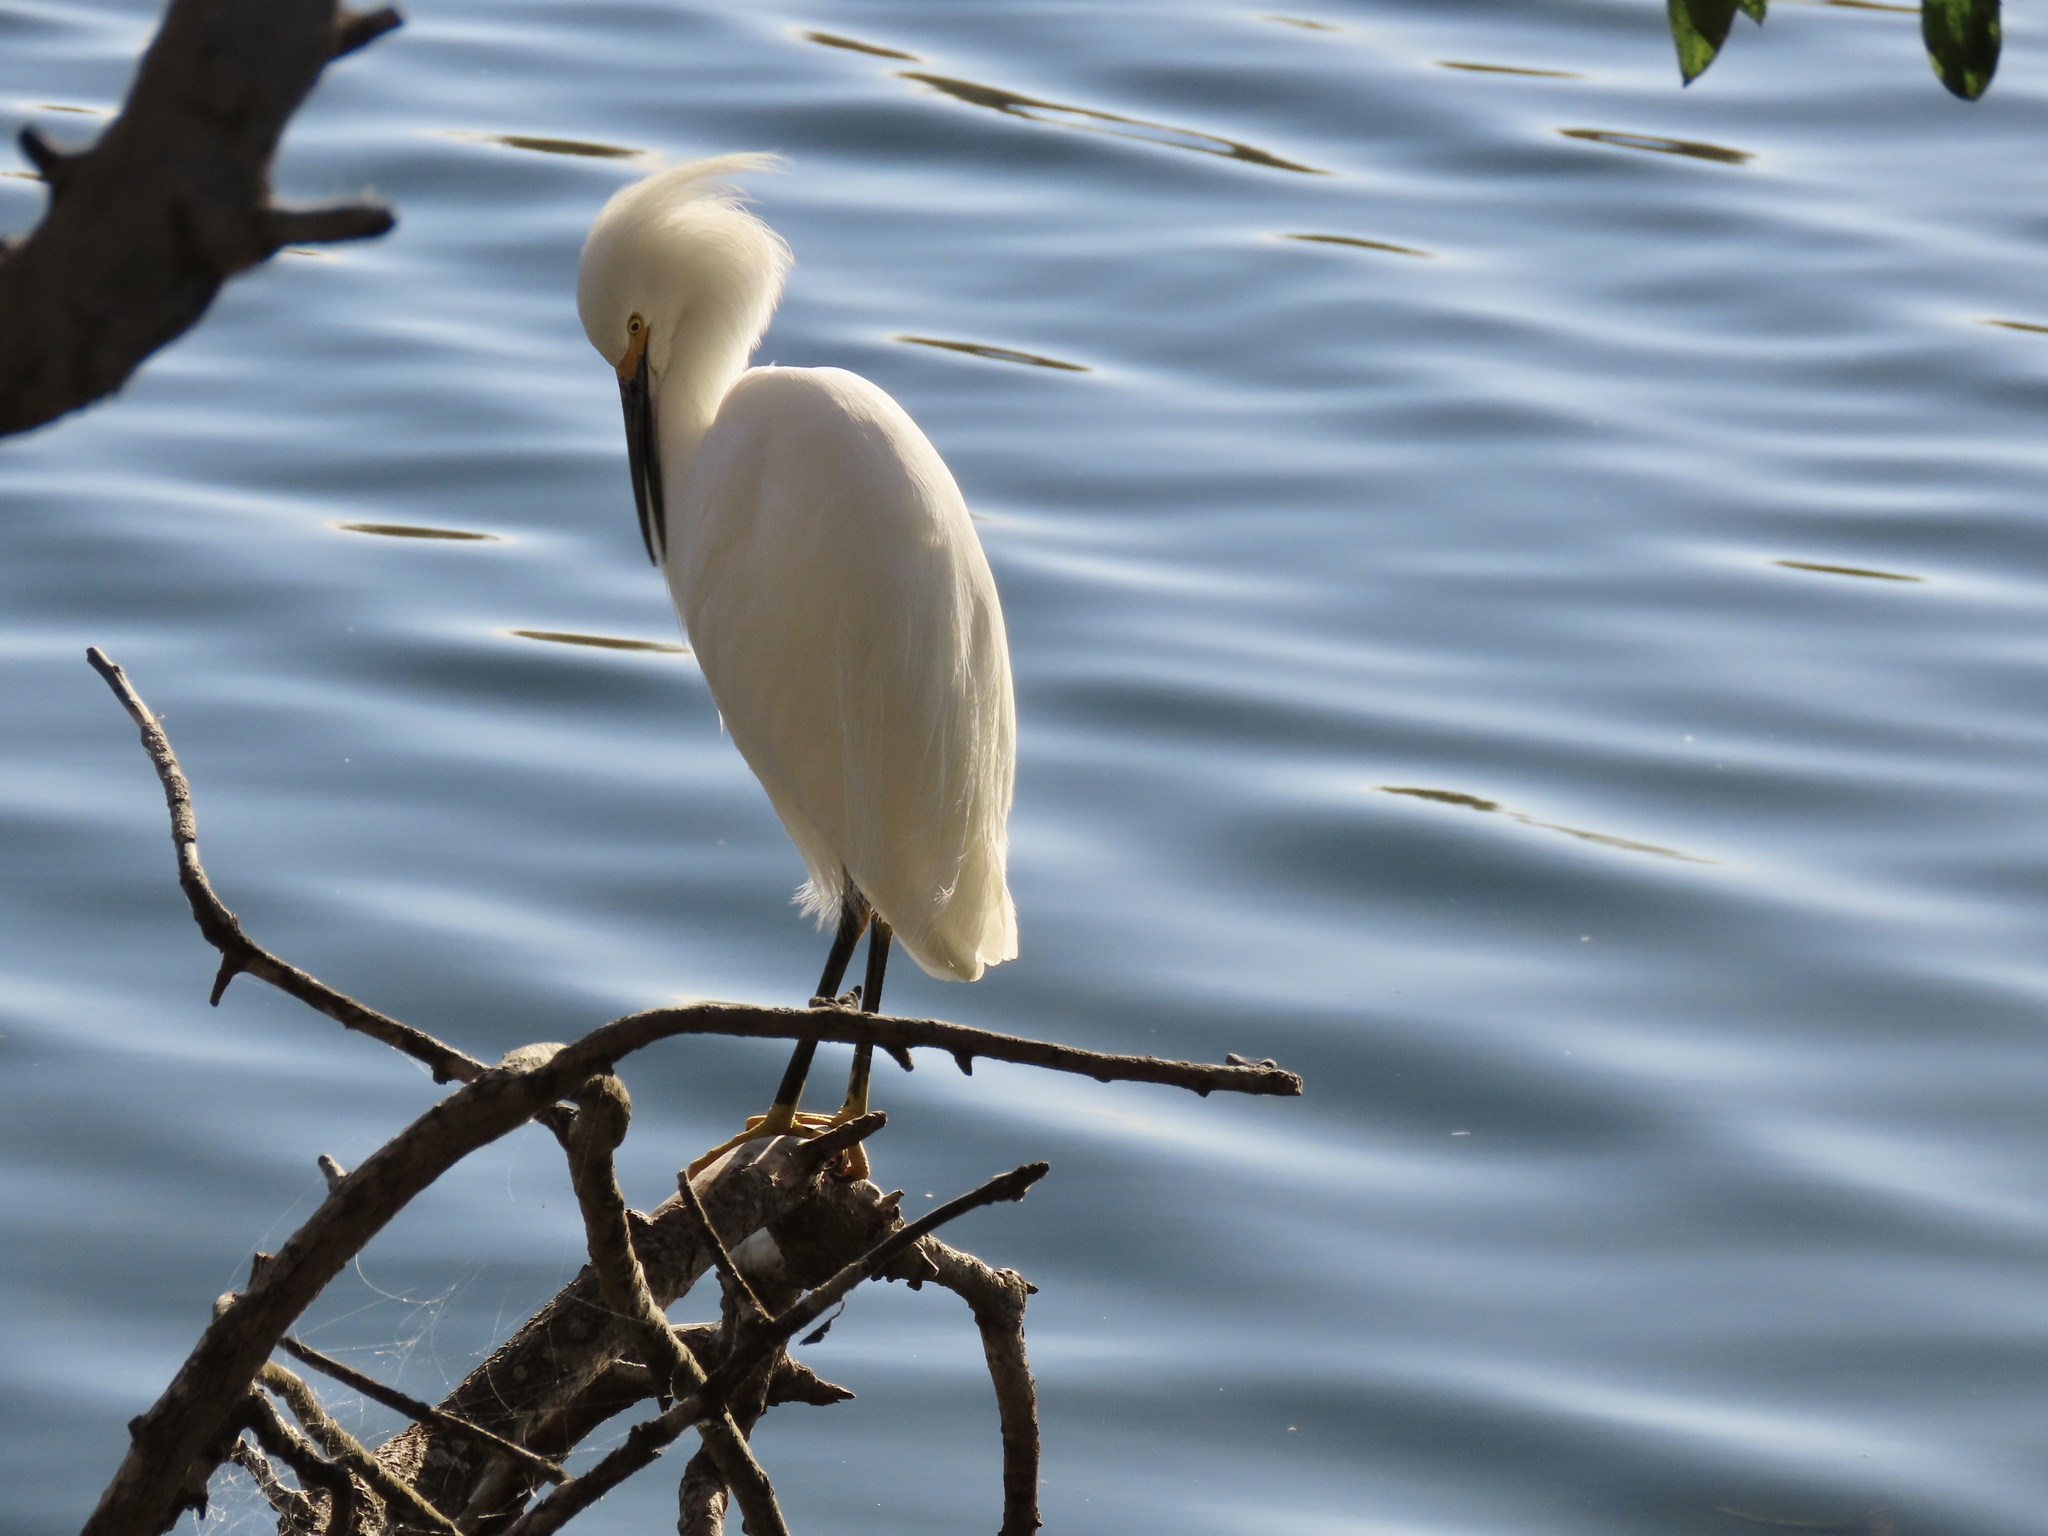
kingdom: Animalia
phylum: Chordata
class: Aves
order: Pelecaniformes
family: Ardeidae
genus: Egretta
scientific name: Egretta thula
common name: Snowy egret
